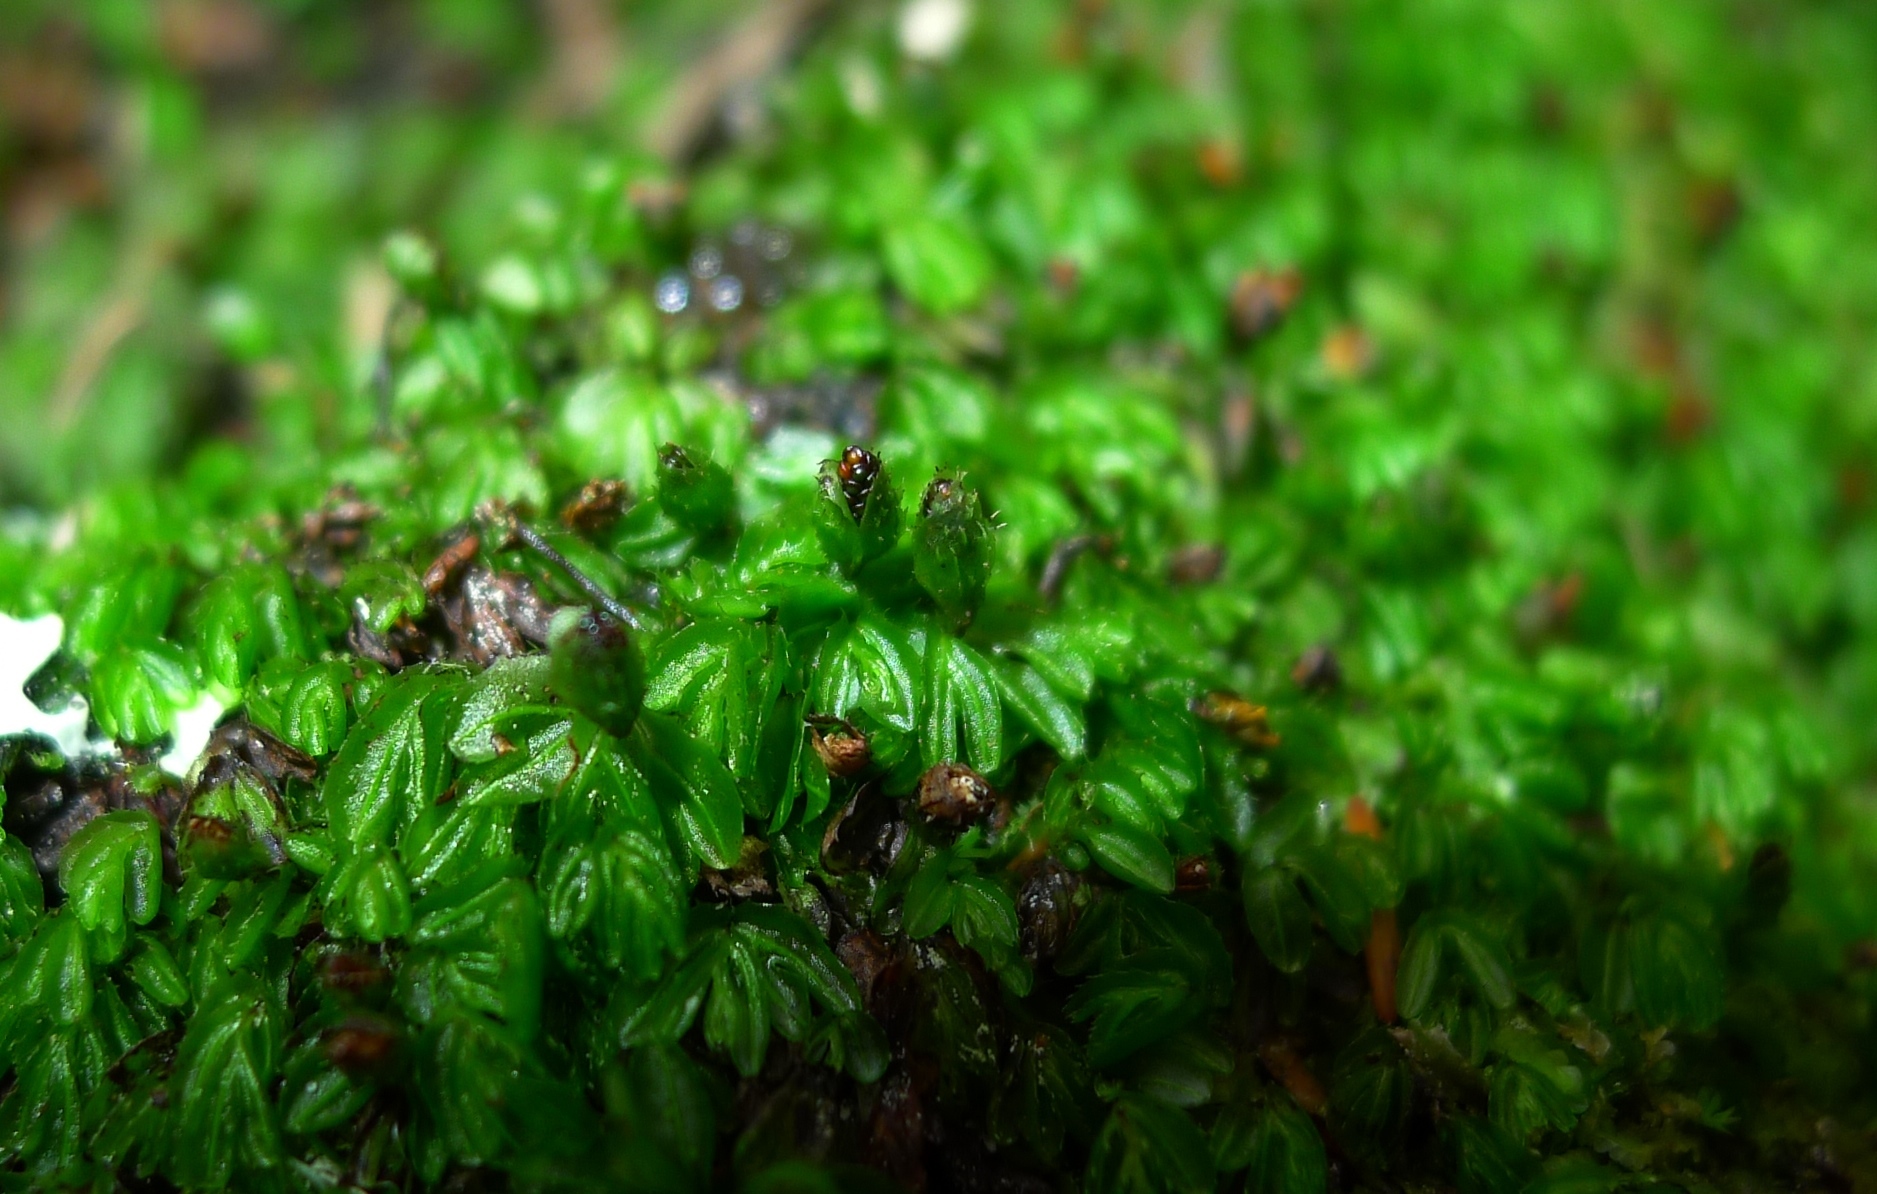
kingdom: Plantae
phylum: Tracheophyta
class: Polypodiopsida
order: Hymenophyllales
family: Hymenophyllaceae
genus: Hymenophyllum
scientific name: Hymenophyllum minimum
